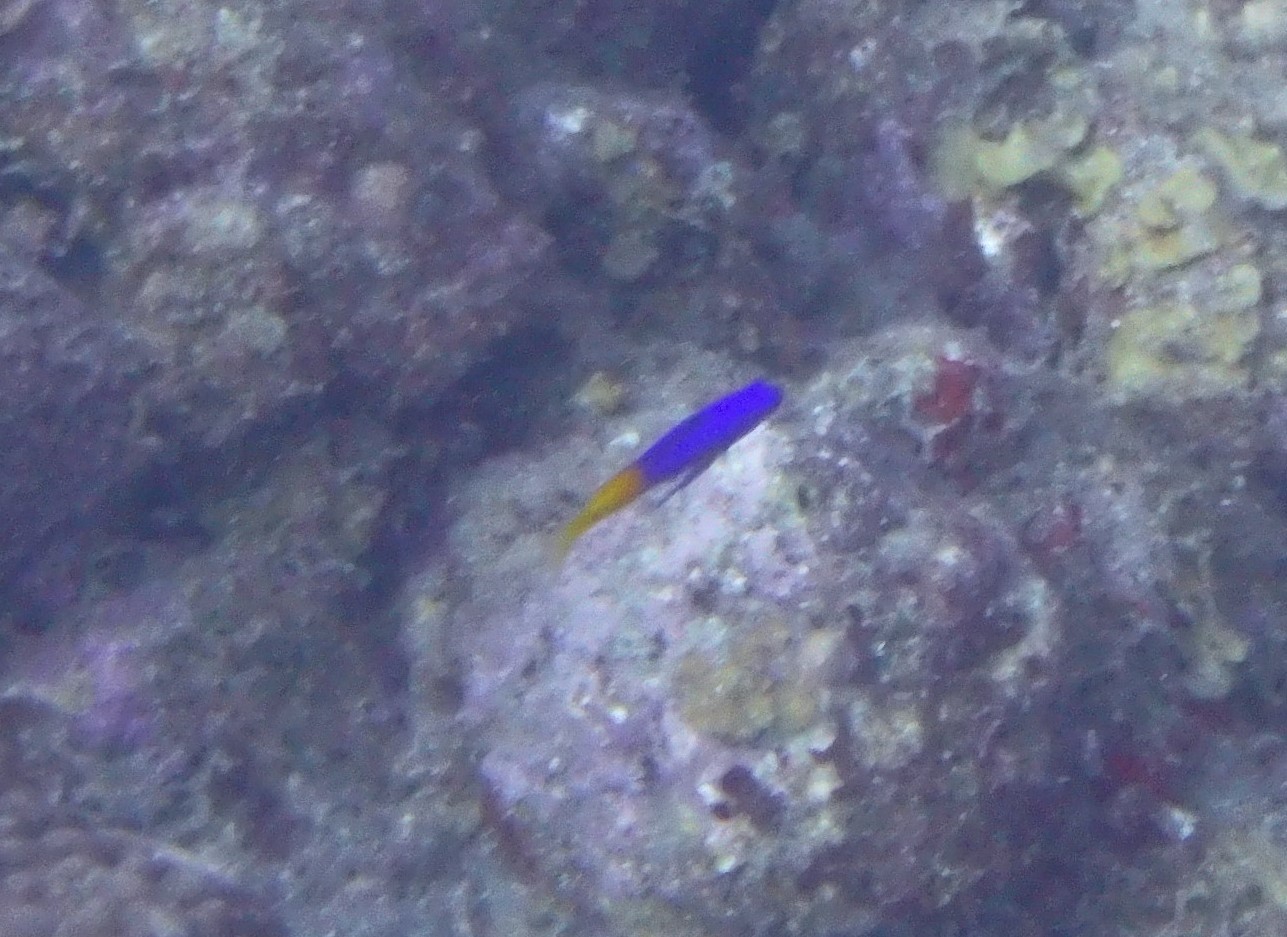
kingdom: Animalia
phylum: Chordata
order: Perciformes
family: Grammatidae
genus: Gramma
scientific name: Gramma loreto
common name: Fairy basslet
